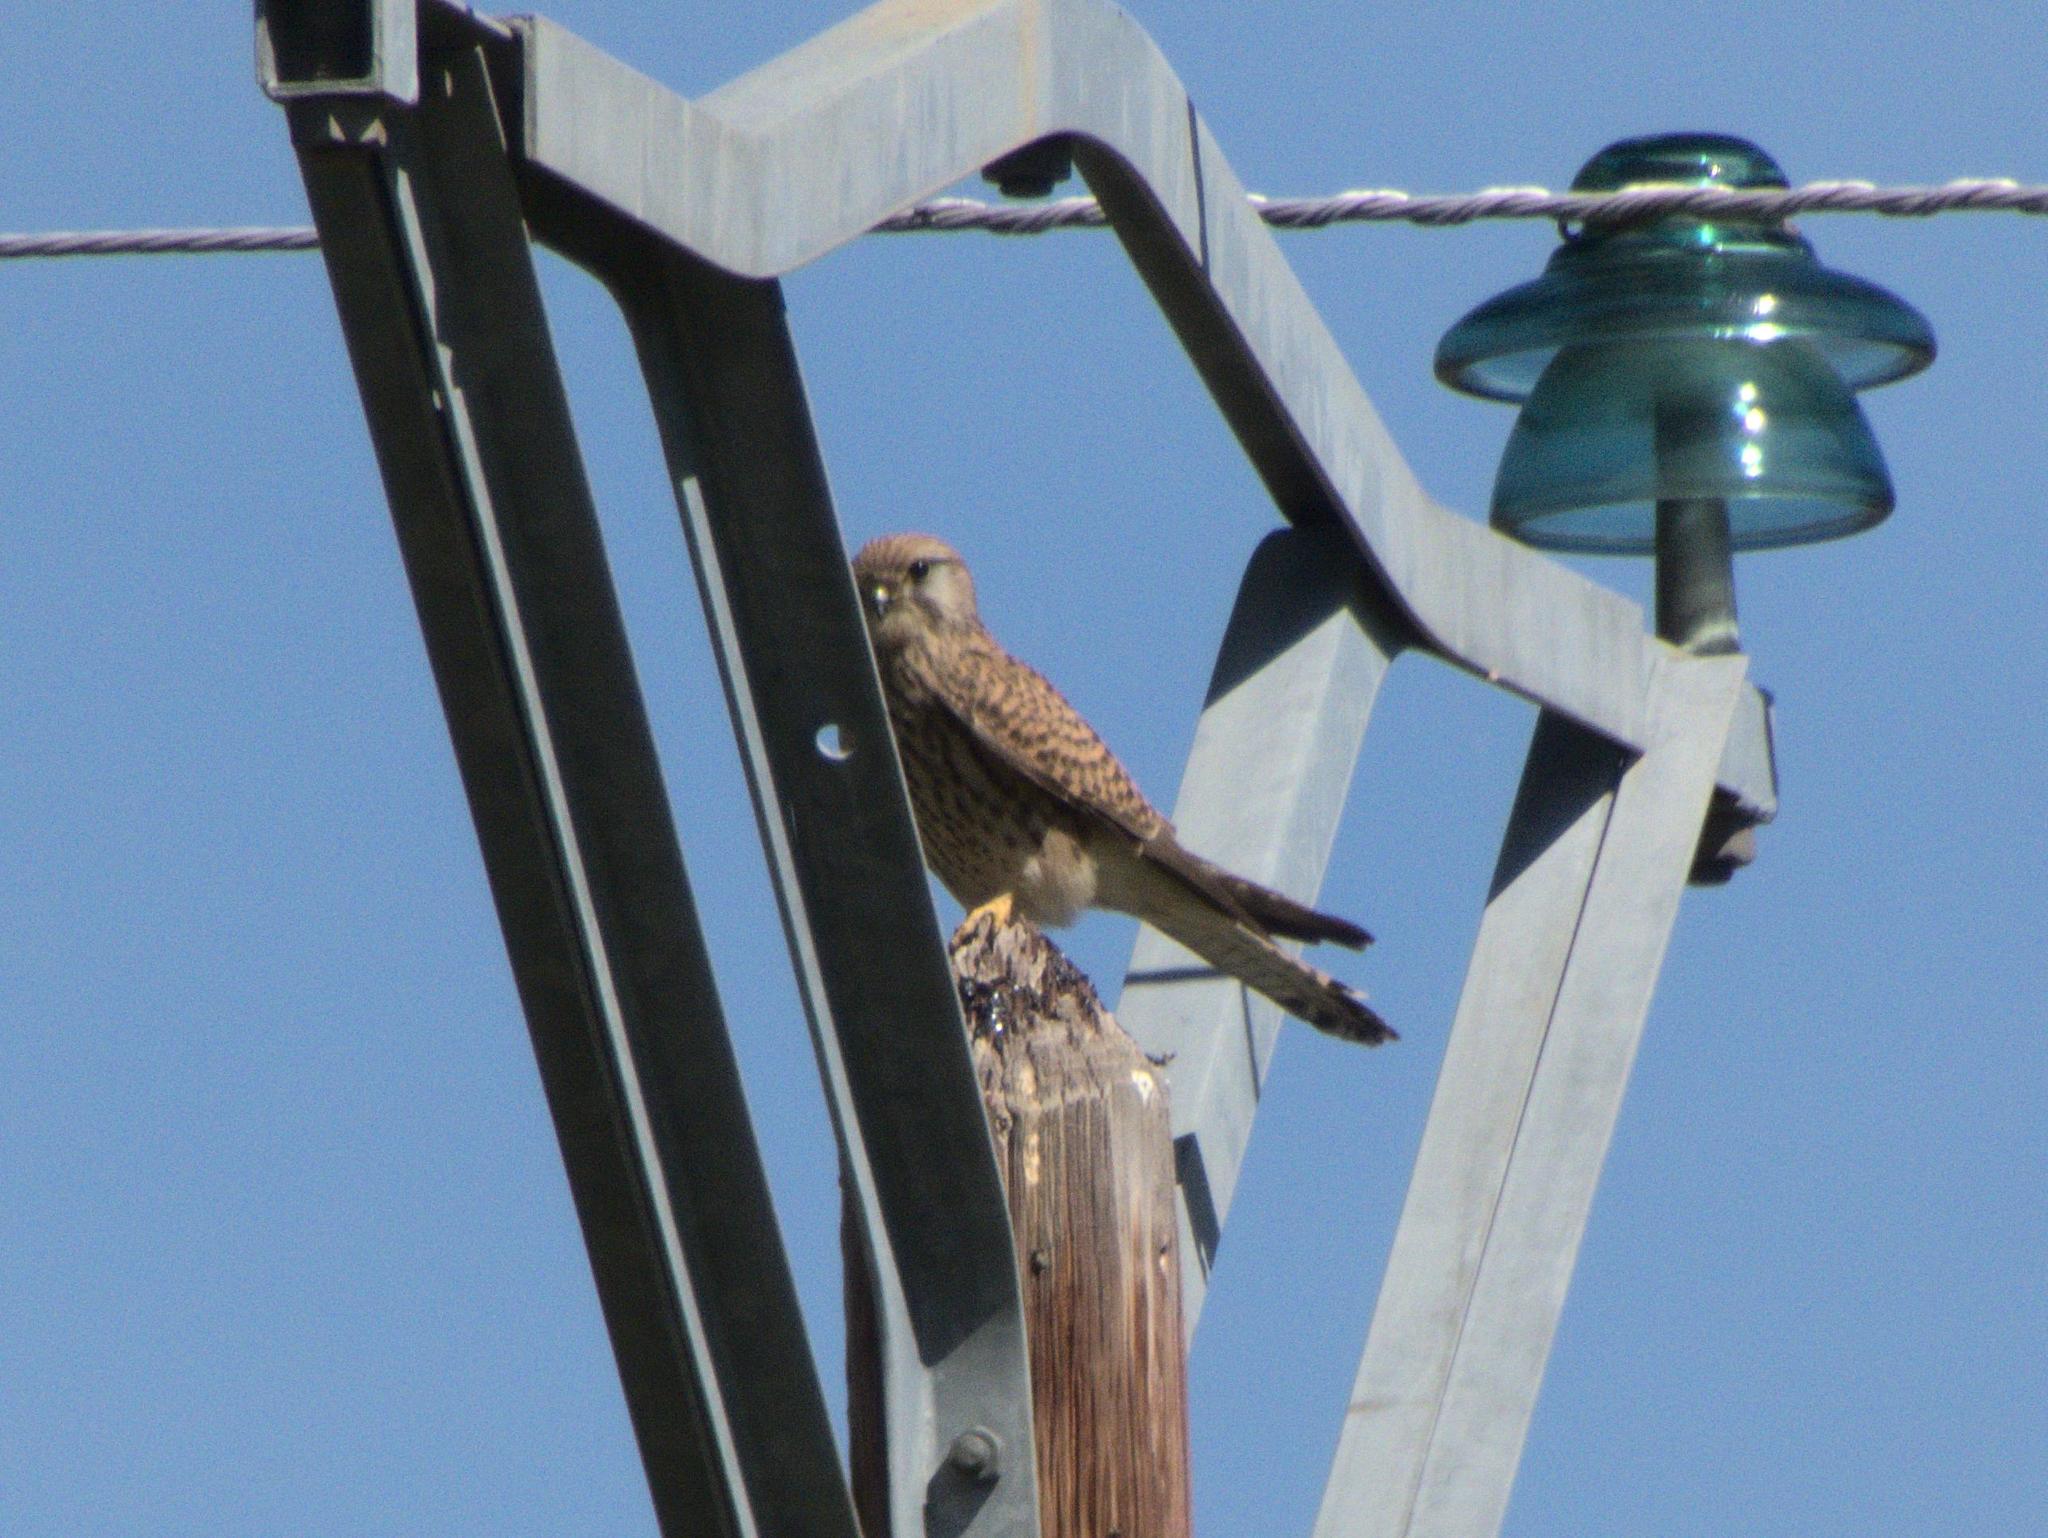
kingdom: Animalia
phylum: Chordata
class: Aves
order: Falconiformes
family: Falconidae
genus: Falco
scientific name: Falco tinnunculus
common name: Common kestrel
